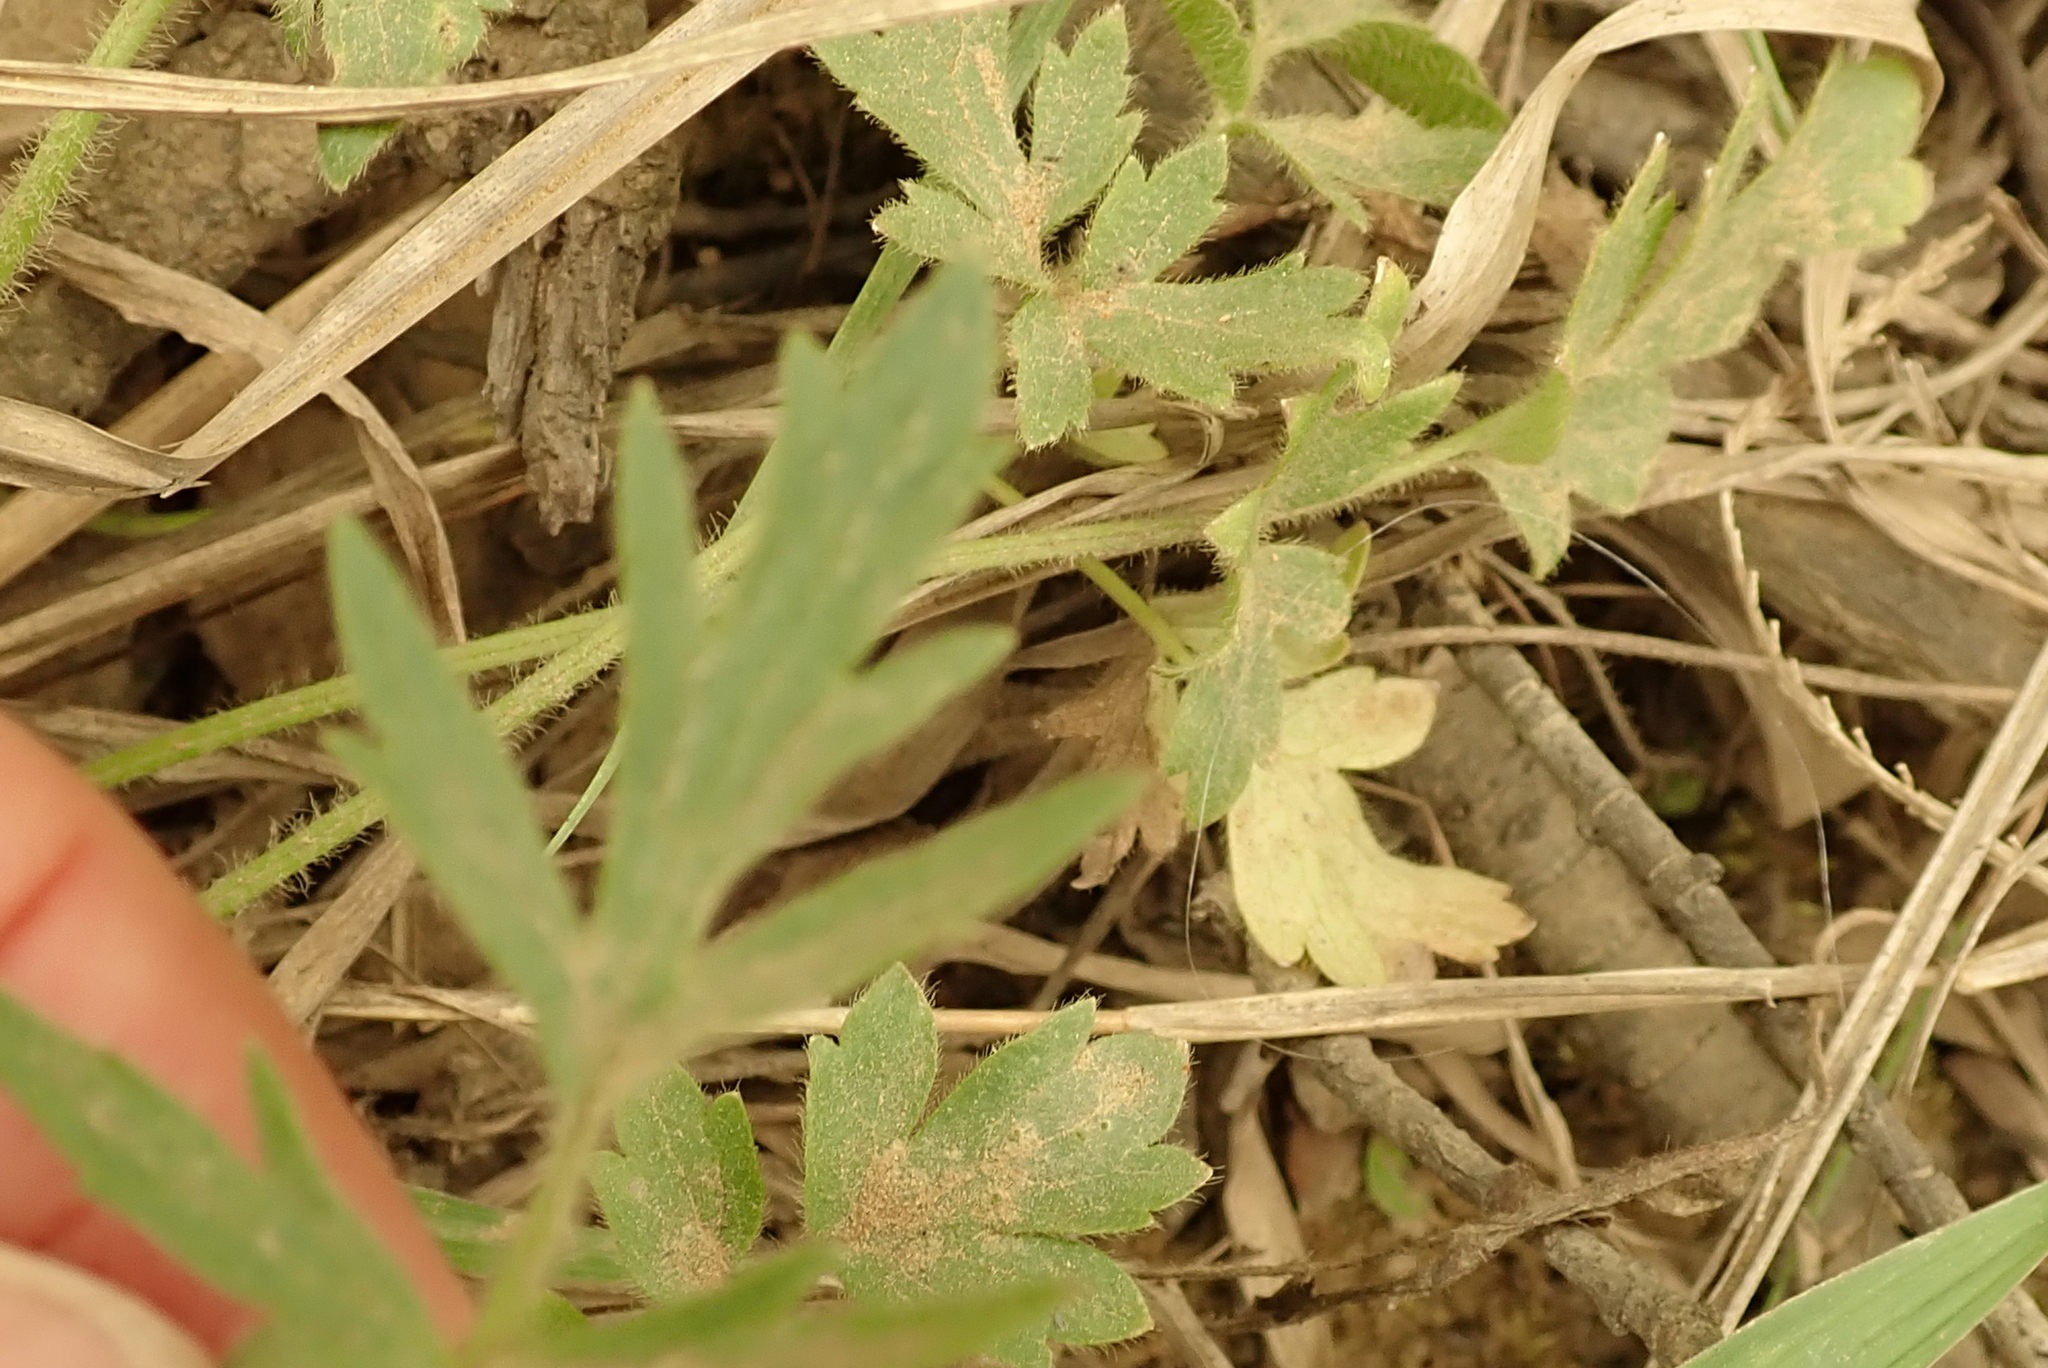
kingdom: Plantae
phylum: Tracheophyta
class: Magnoliopsida
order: Ranunculales
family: Ranunculaceae
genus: Ranunculus
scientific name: Ranunculus multifidus
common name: Wild buttercup
